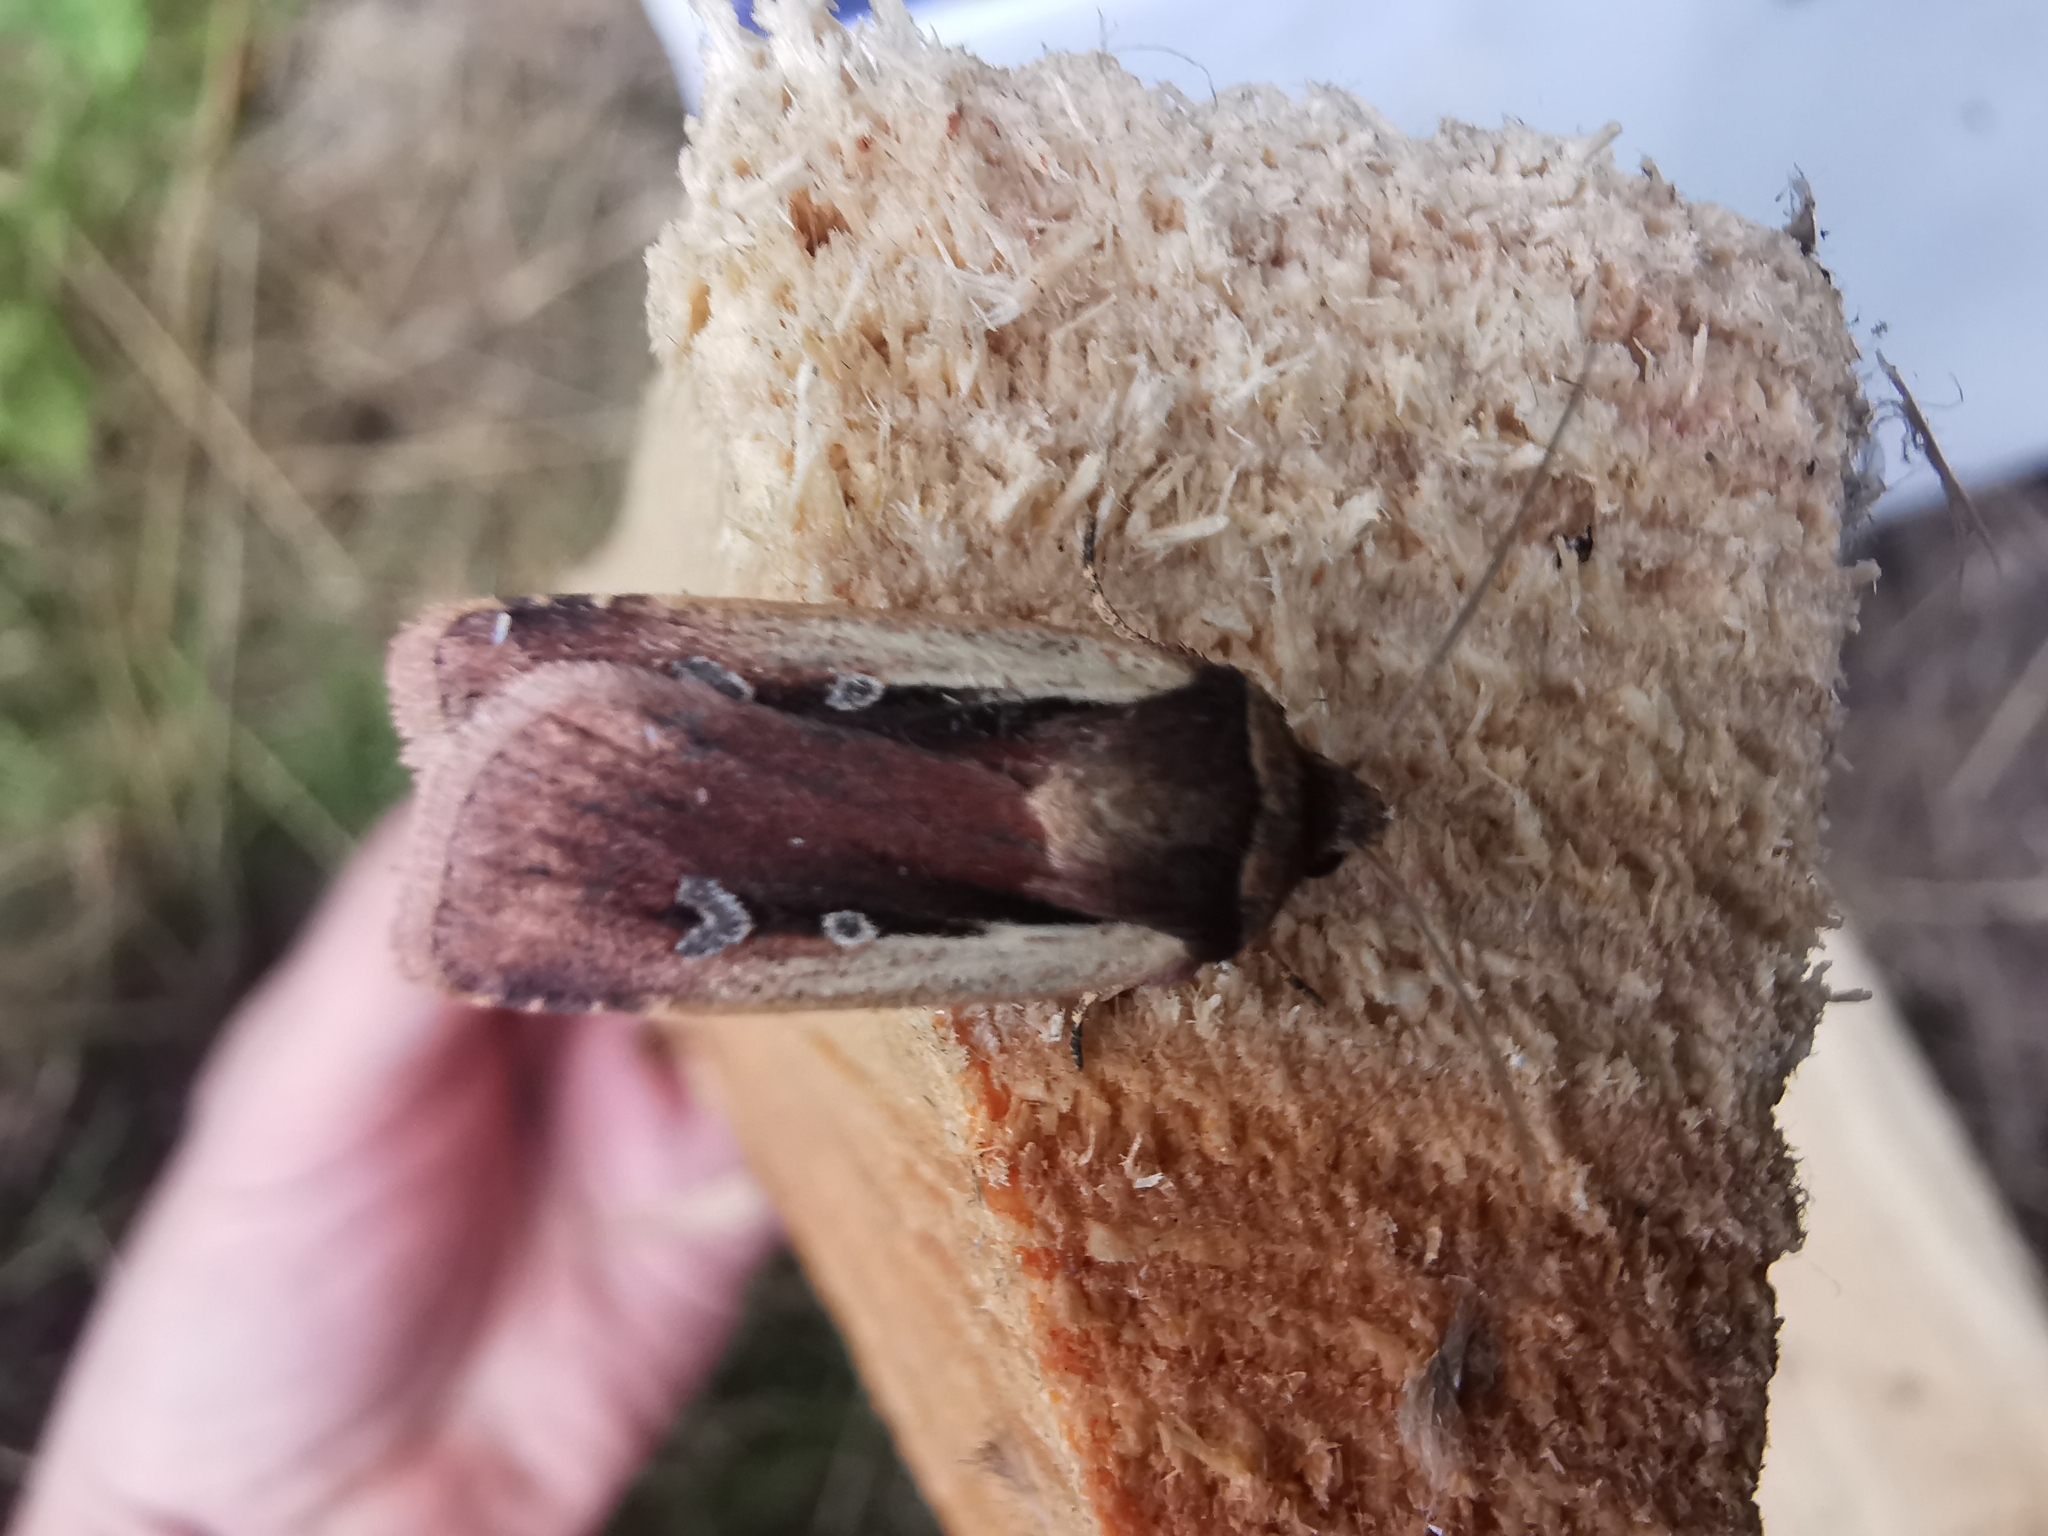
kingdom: Animalia
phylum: Arthropoda
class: Insecta
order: Lepidoptera
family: Noctuidae
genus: Ochropleura
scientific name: Ochropleura plecta
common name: Flame shoulder
